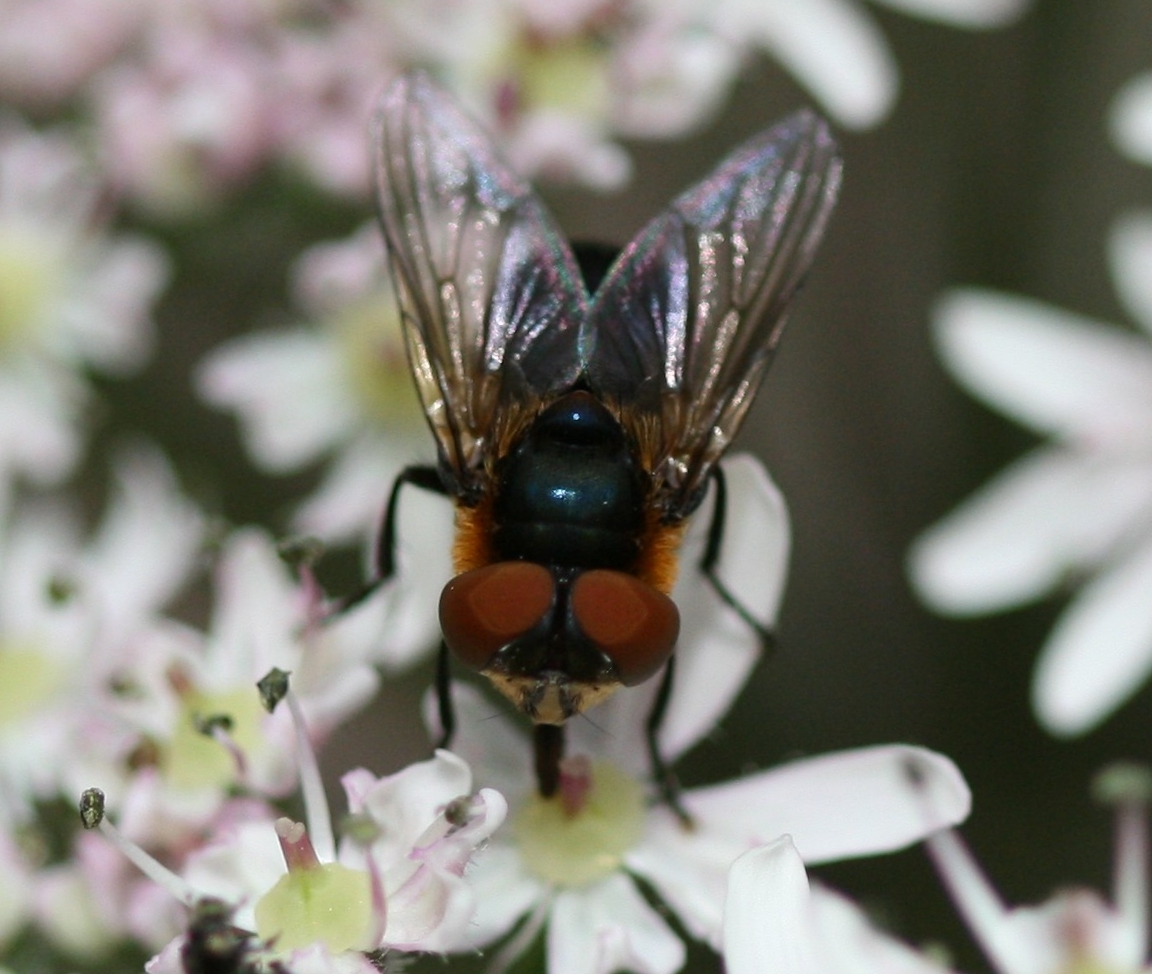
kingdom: Animalia
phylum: Arthropoda
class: Insecta
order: Diptera
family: Tachinidae
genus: Phasia
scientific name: Phasia hemiptera
